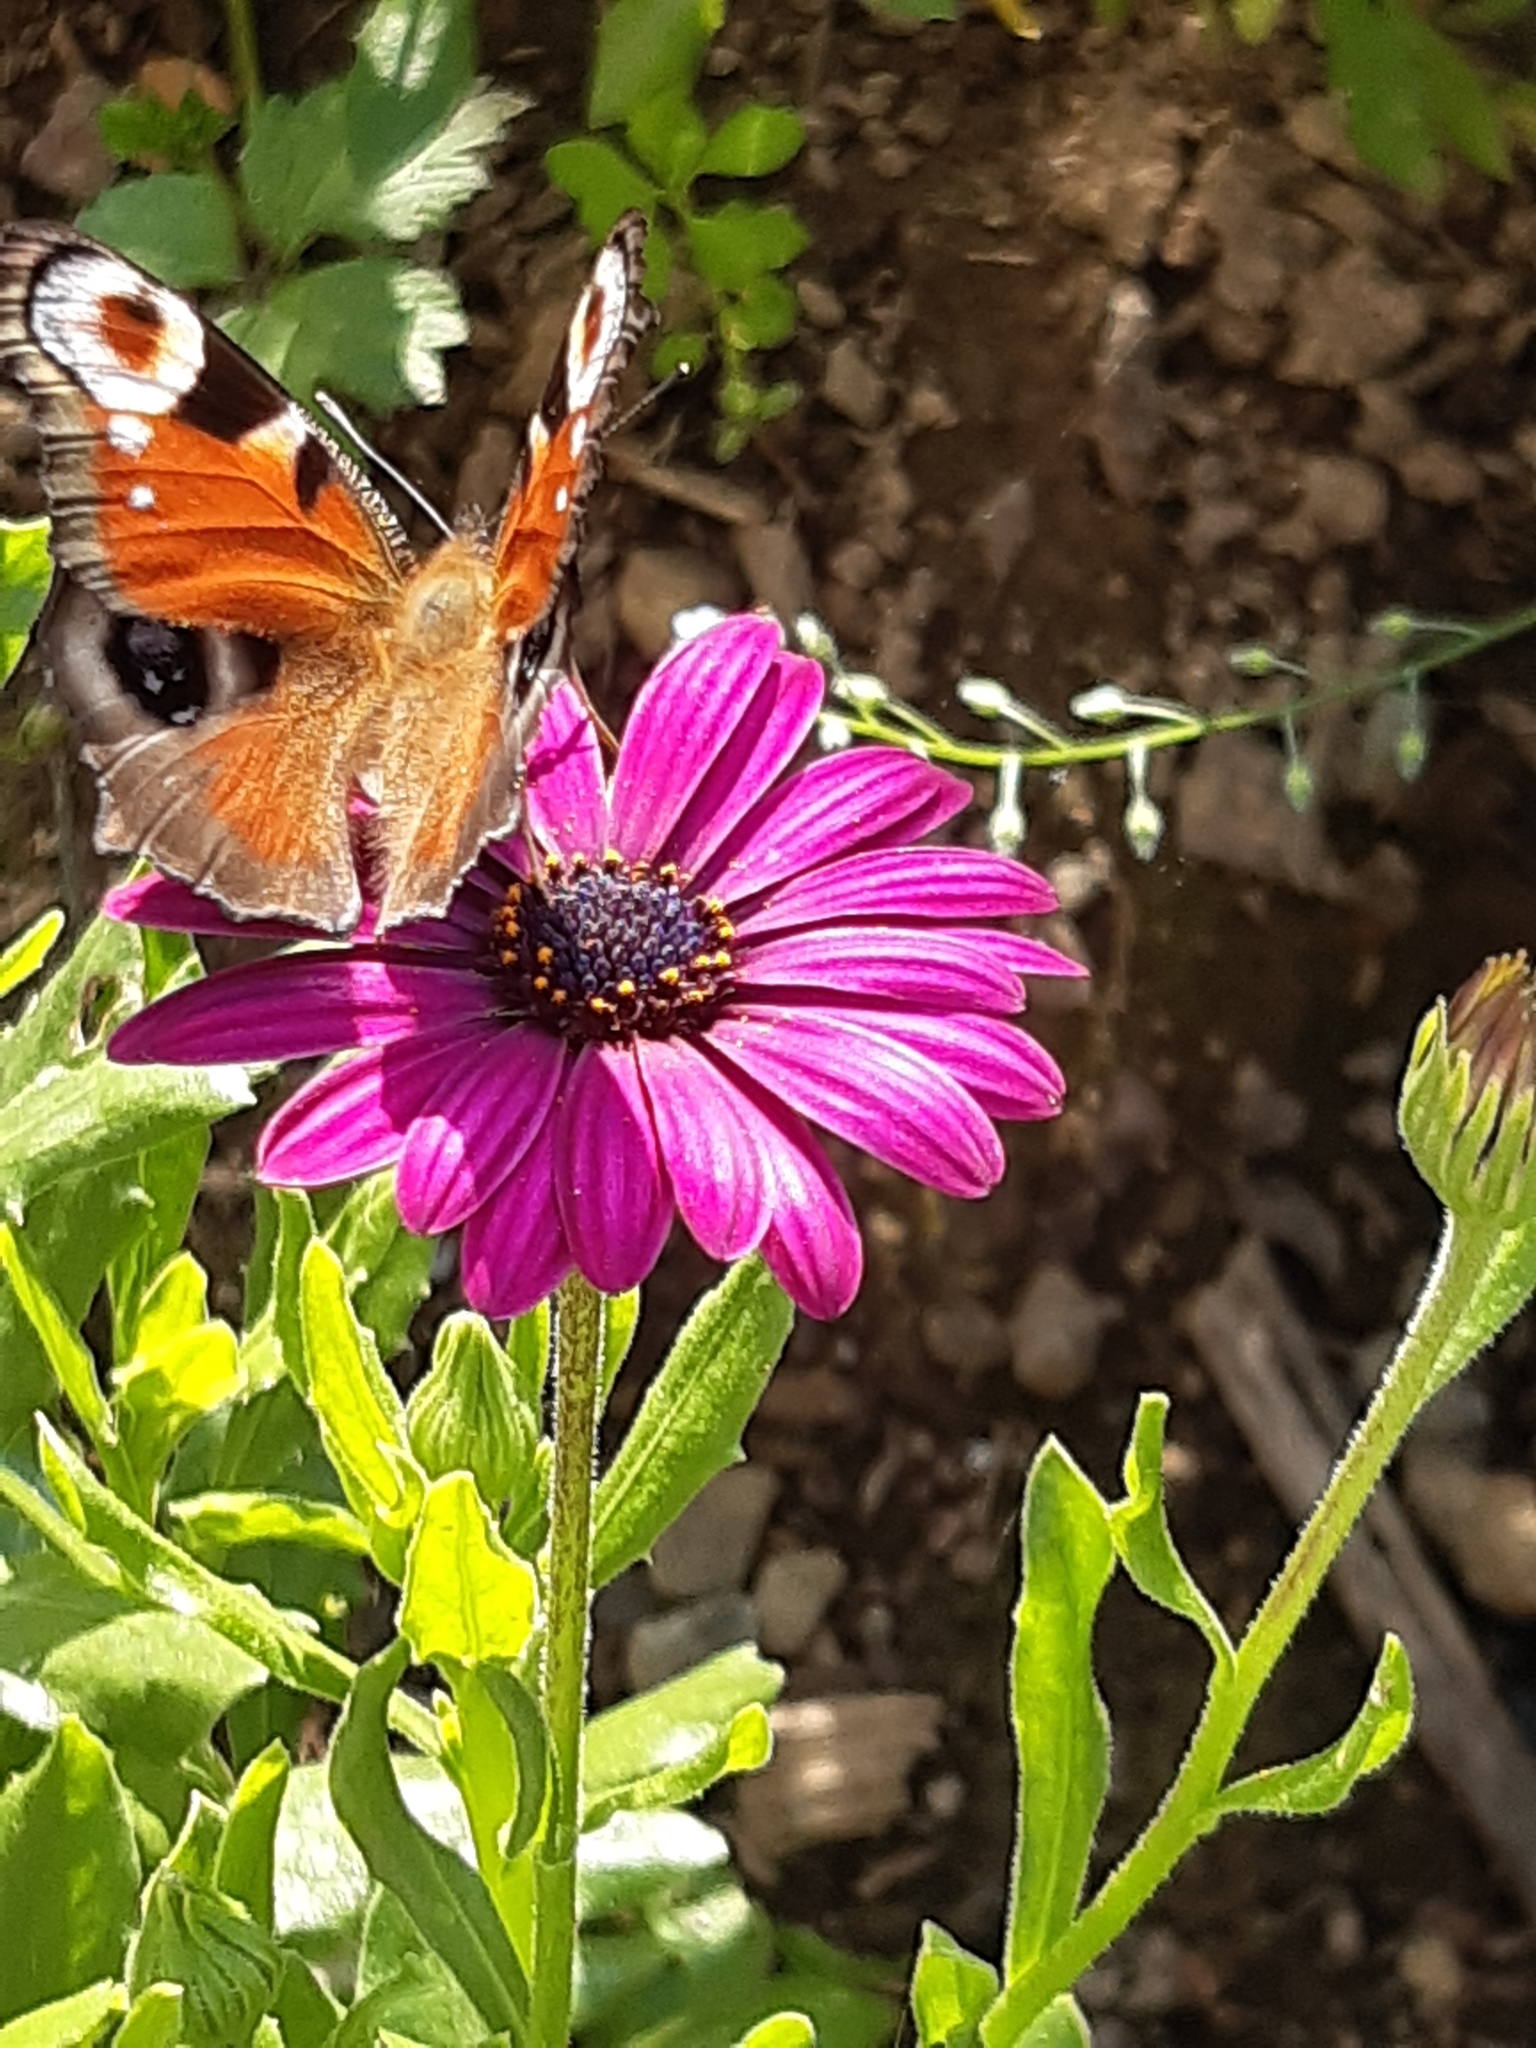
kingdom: Animalia
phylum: Arthropoda
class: Insecta
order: Lepidoptera
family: Nymphalidae
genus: Aglais
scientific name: Aglais io
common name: Peacock
